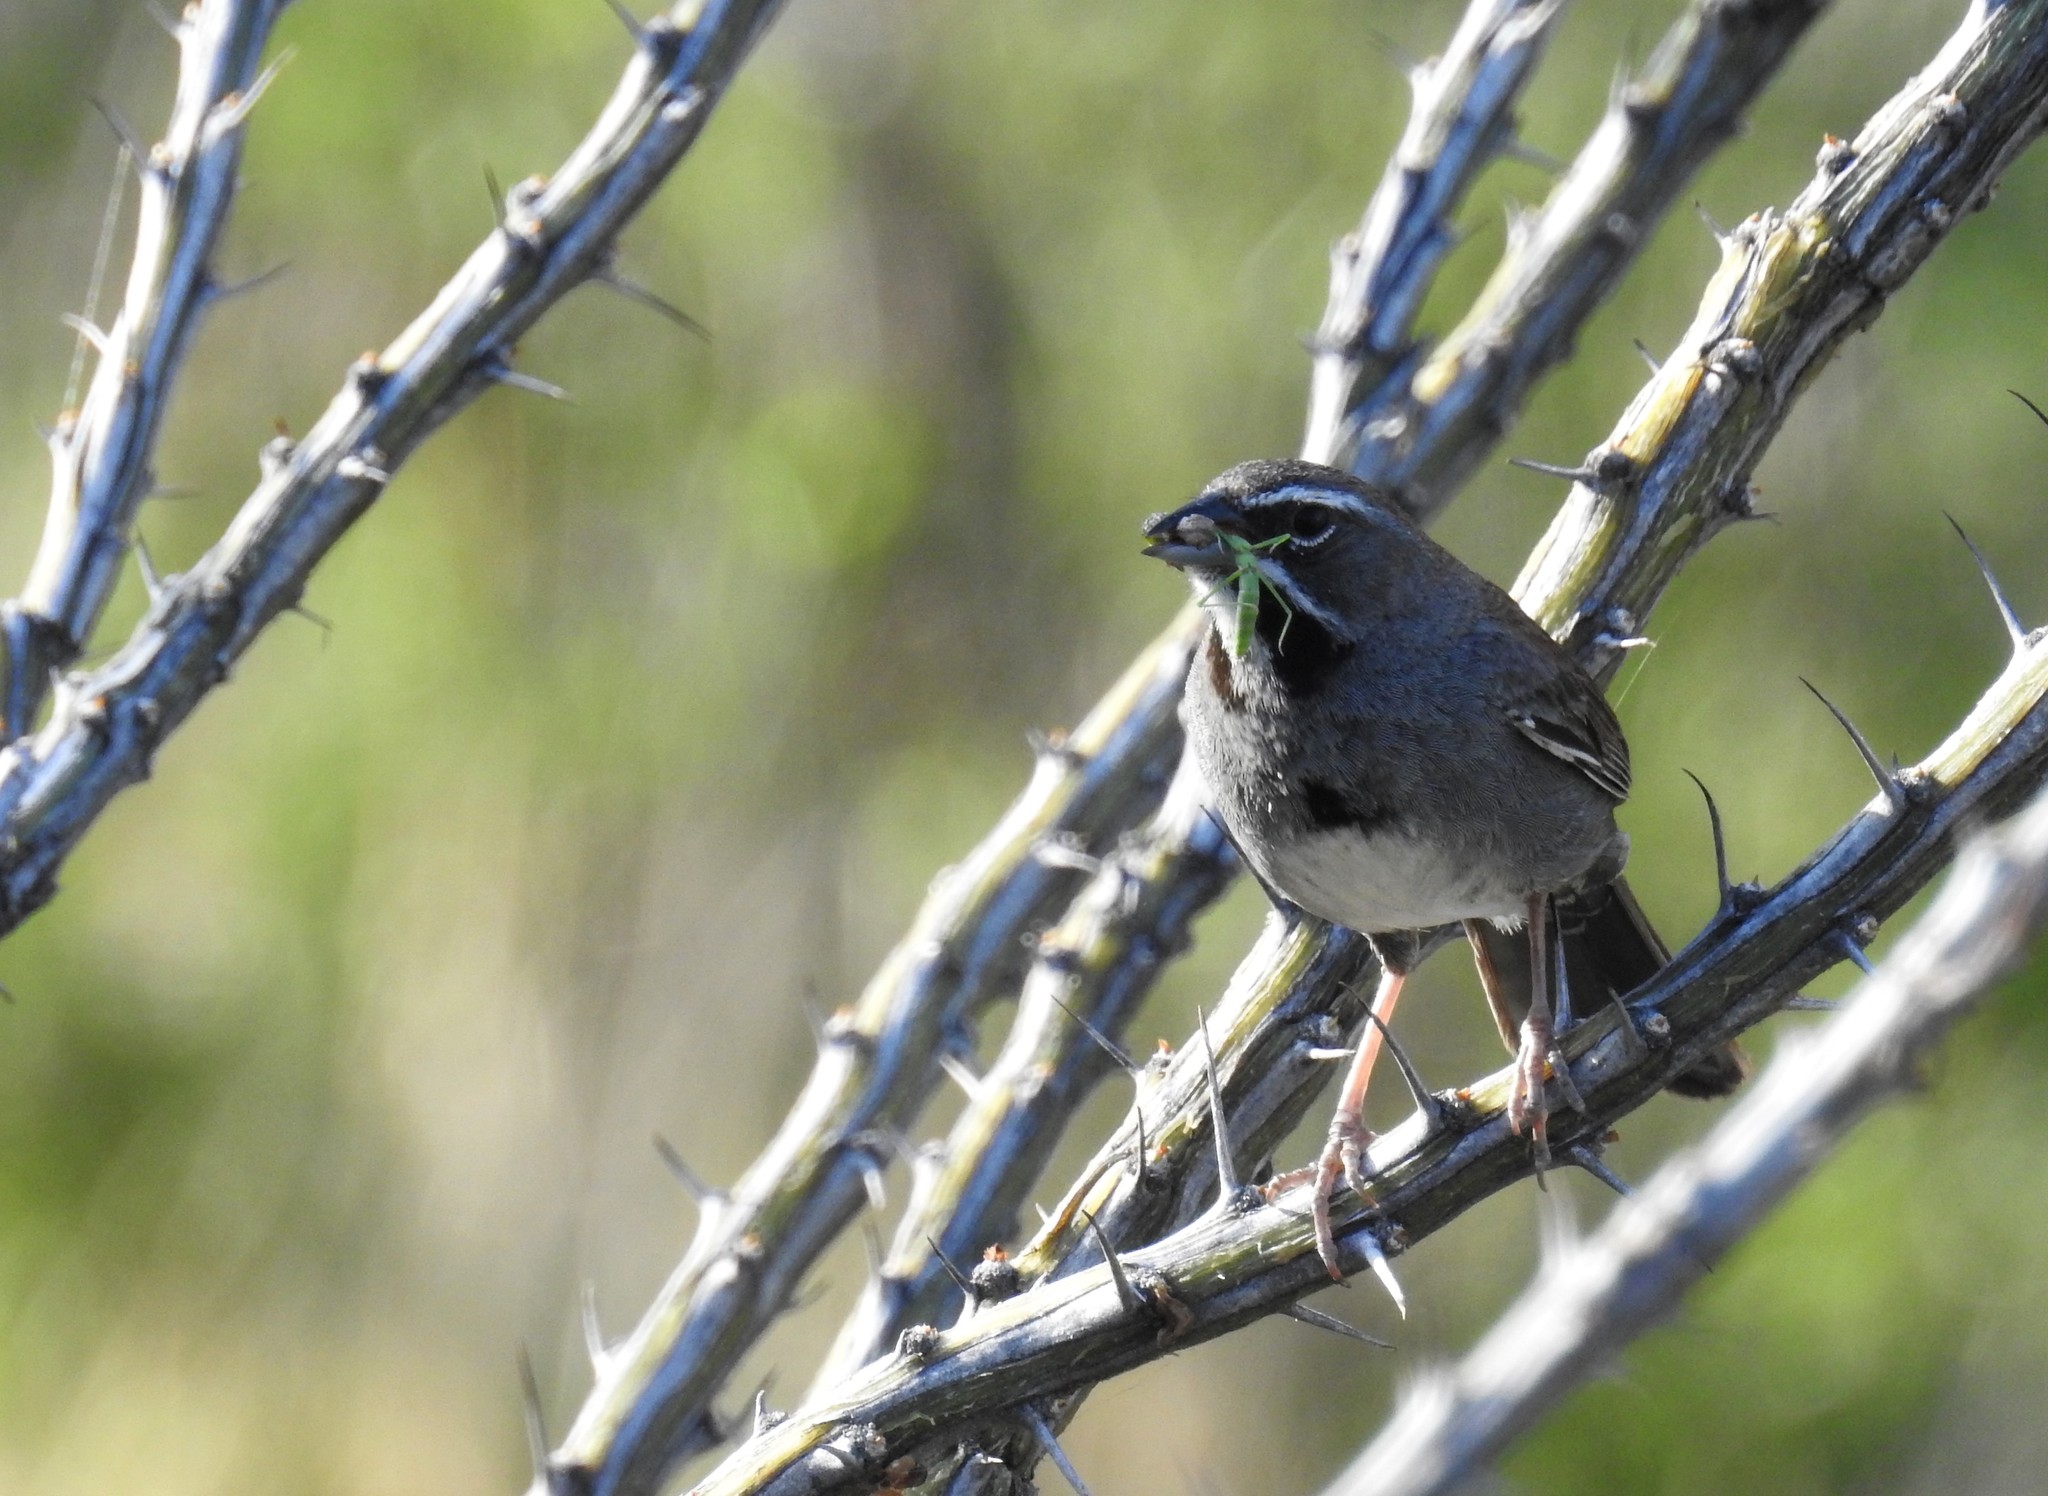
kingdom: Animalia
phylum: Chordata
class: Aves
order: Passeriformes
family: Passerellidae
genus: Amphispizopsis
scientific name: Amphispizopsis quinquestriata
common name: Five-striped sparrow
